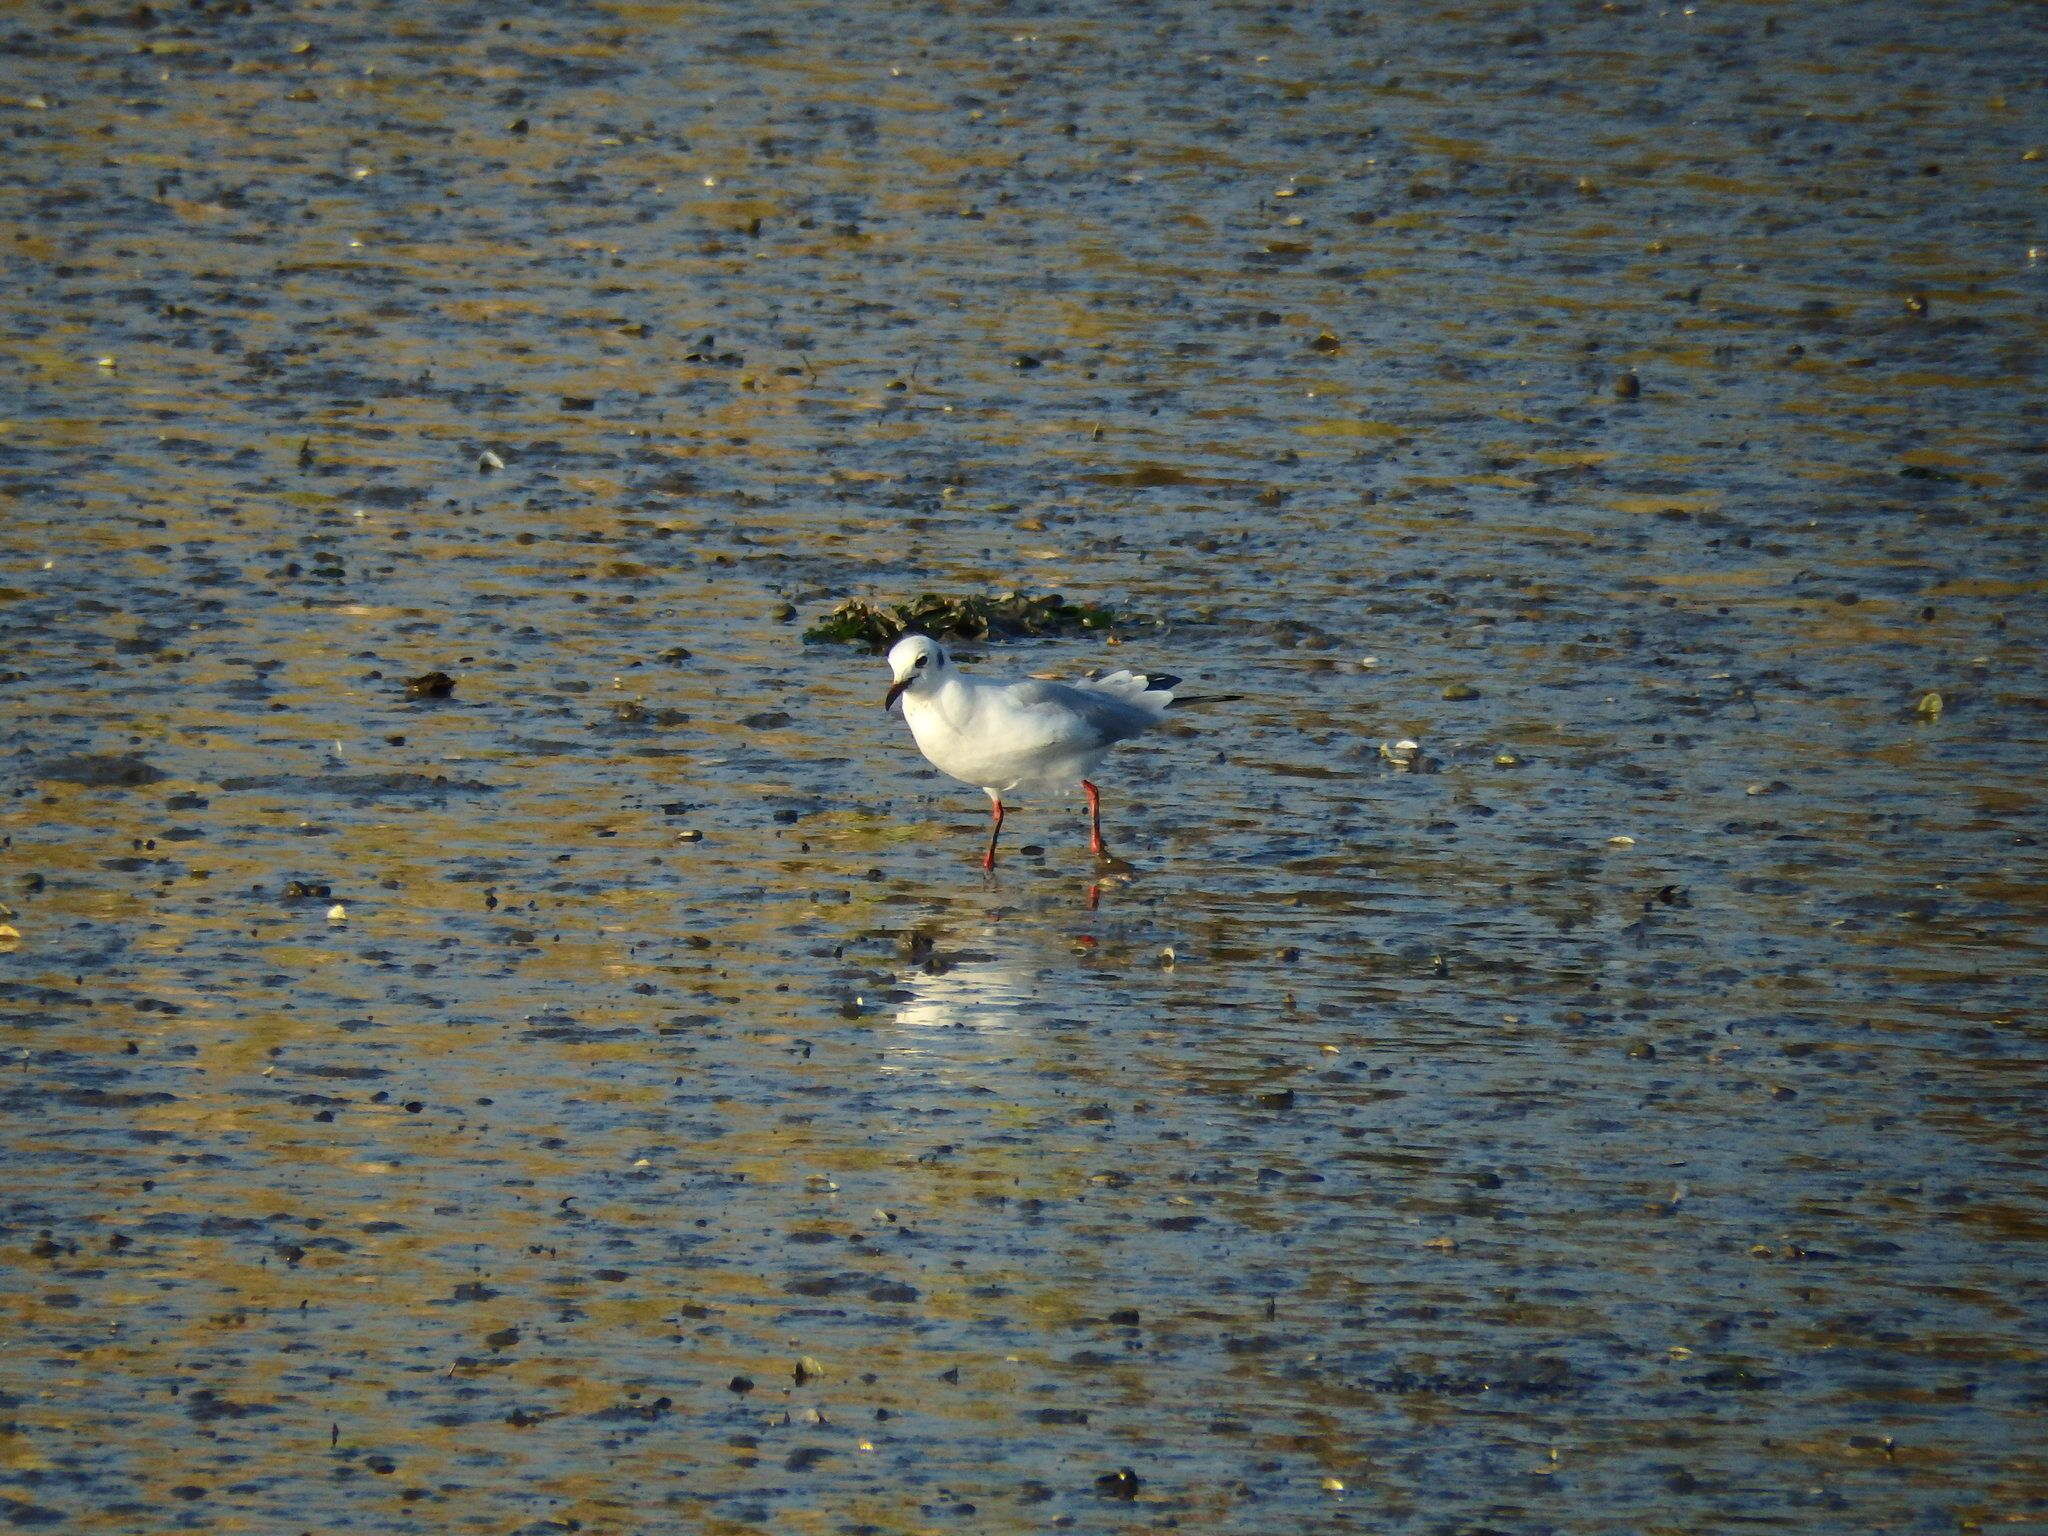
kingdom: Animalia
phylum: Chordata
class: Aves
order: Charadriiformes
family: Laridae
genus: Chroicocephalus
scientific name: Chroicocephalus ridibundus
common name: Black-headed gull
